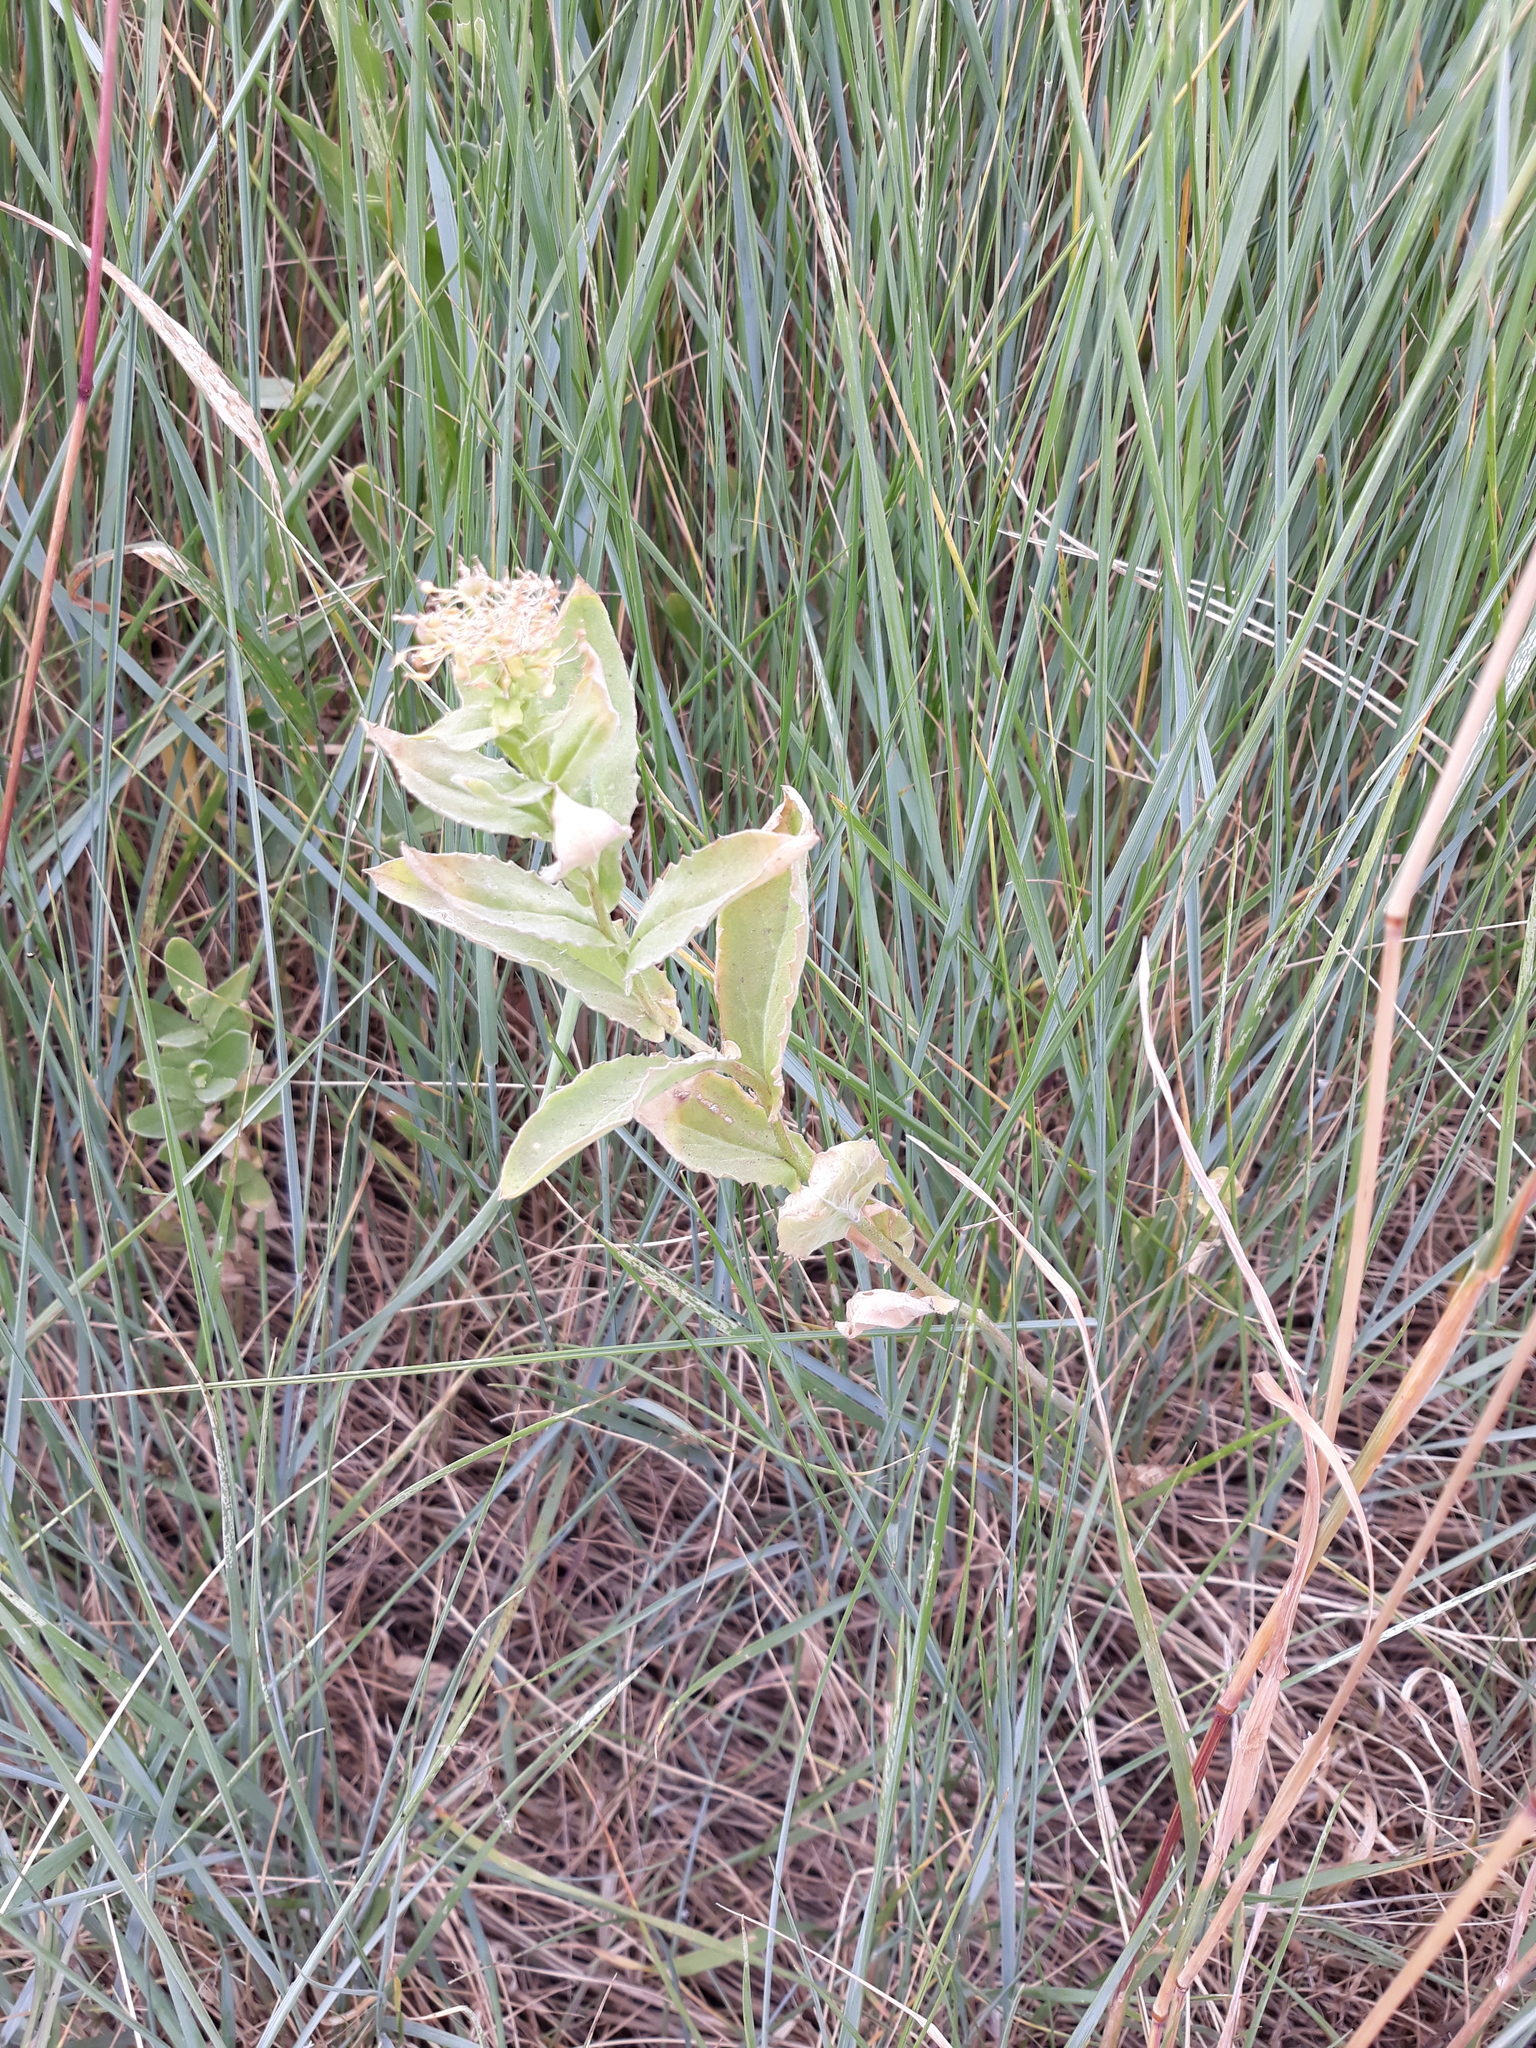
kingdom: Plantae
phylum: Tracheophyta
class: Magnoliopsida
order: Brassicales
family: Brassicaceae
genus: Lepidium
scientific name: Lepidium draba
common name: Hoary cress
